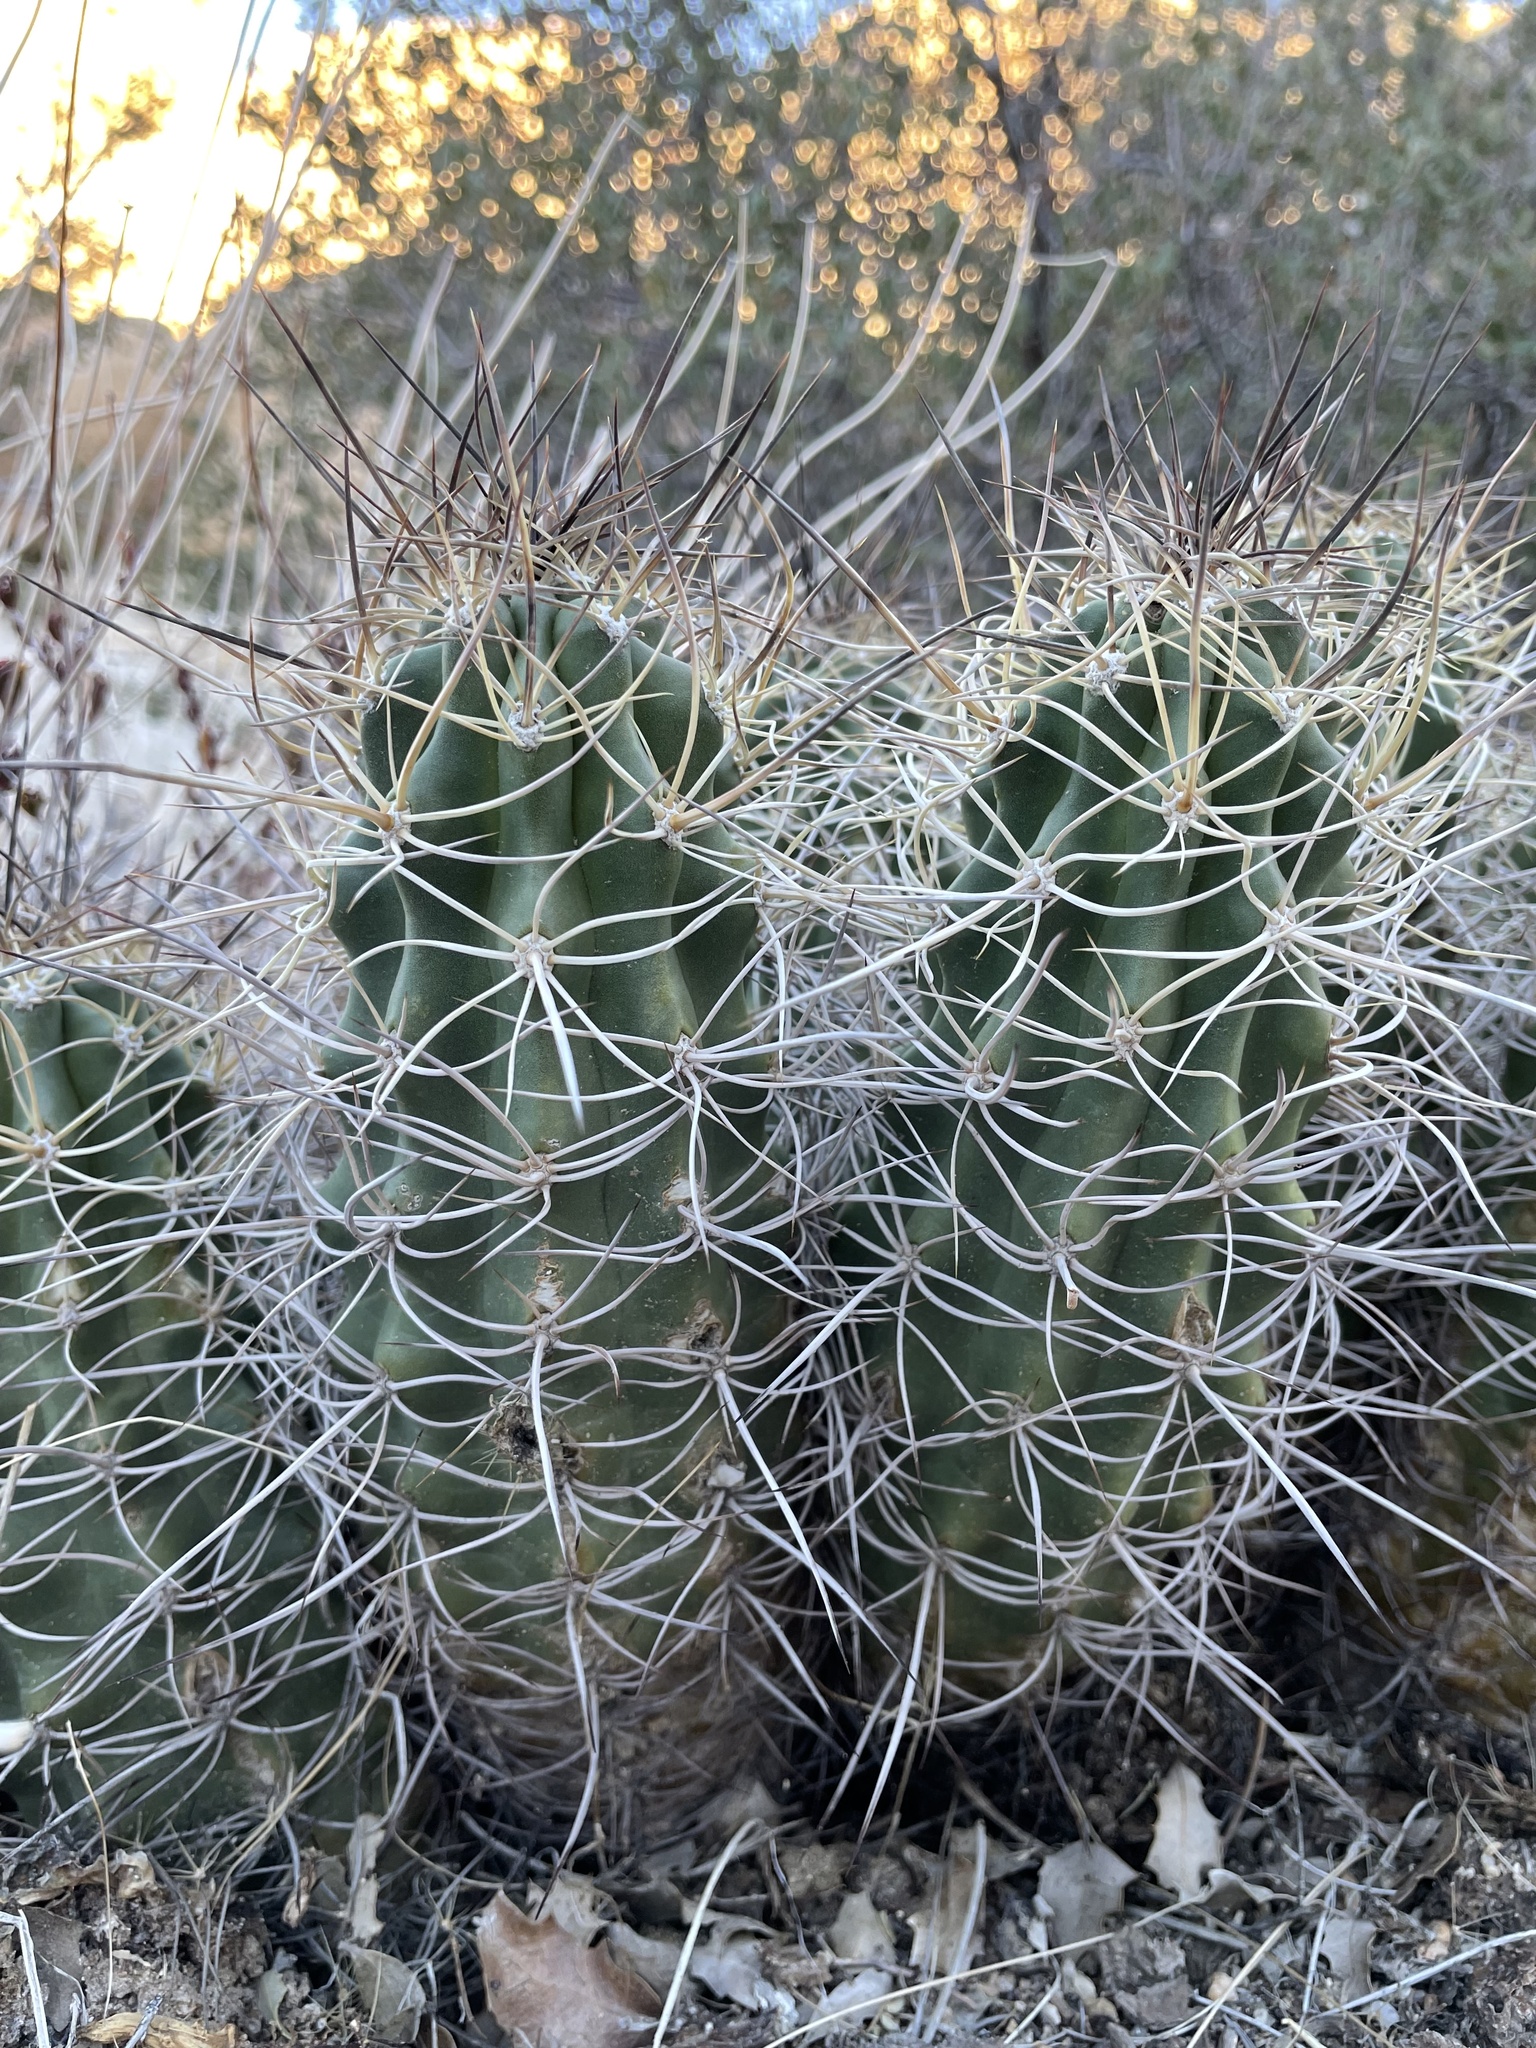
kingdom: Plantae
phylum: Tracheophyta
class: Magnoliopsida
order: Caryophyllales
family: Cactaceae
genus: Echinocereus
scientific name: Echinocereus triglochidiatus
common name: Claretcup hedgehog
